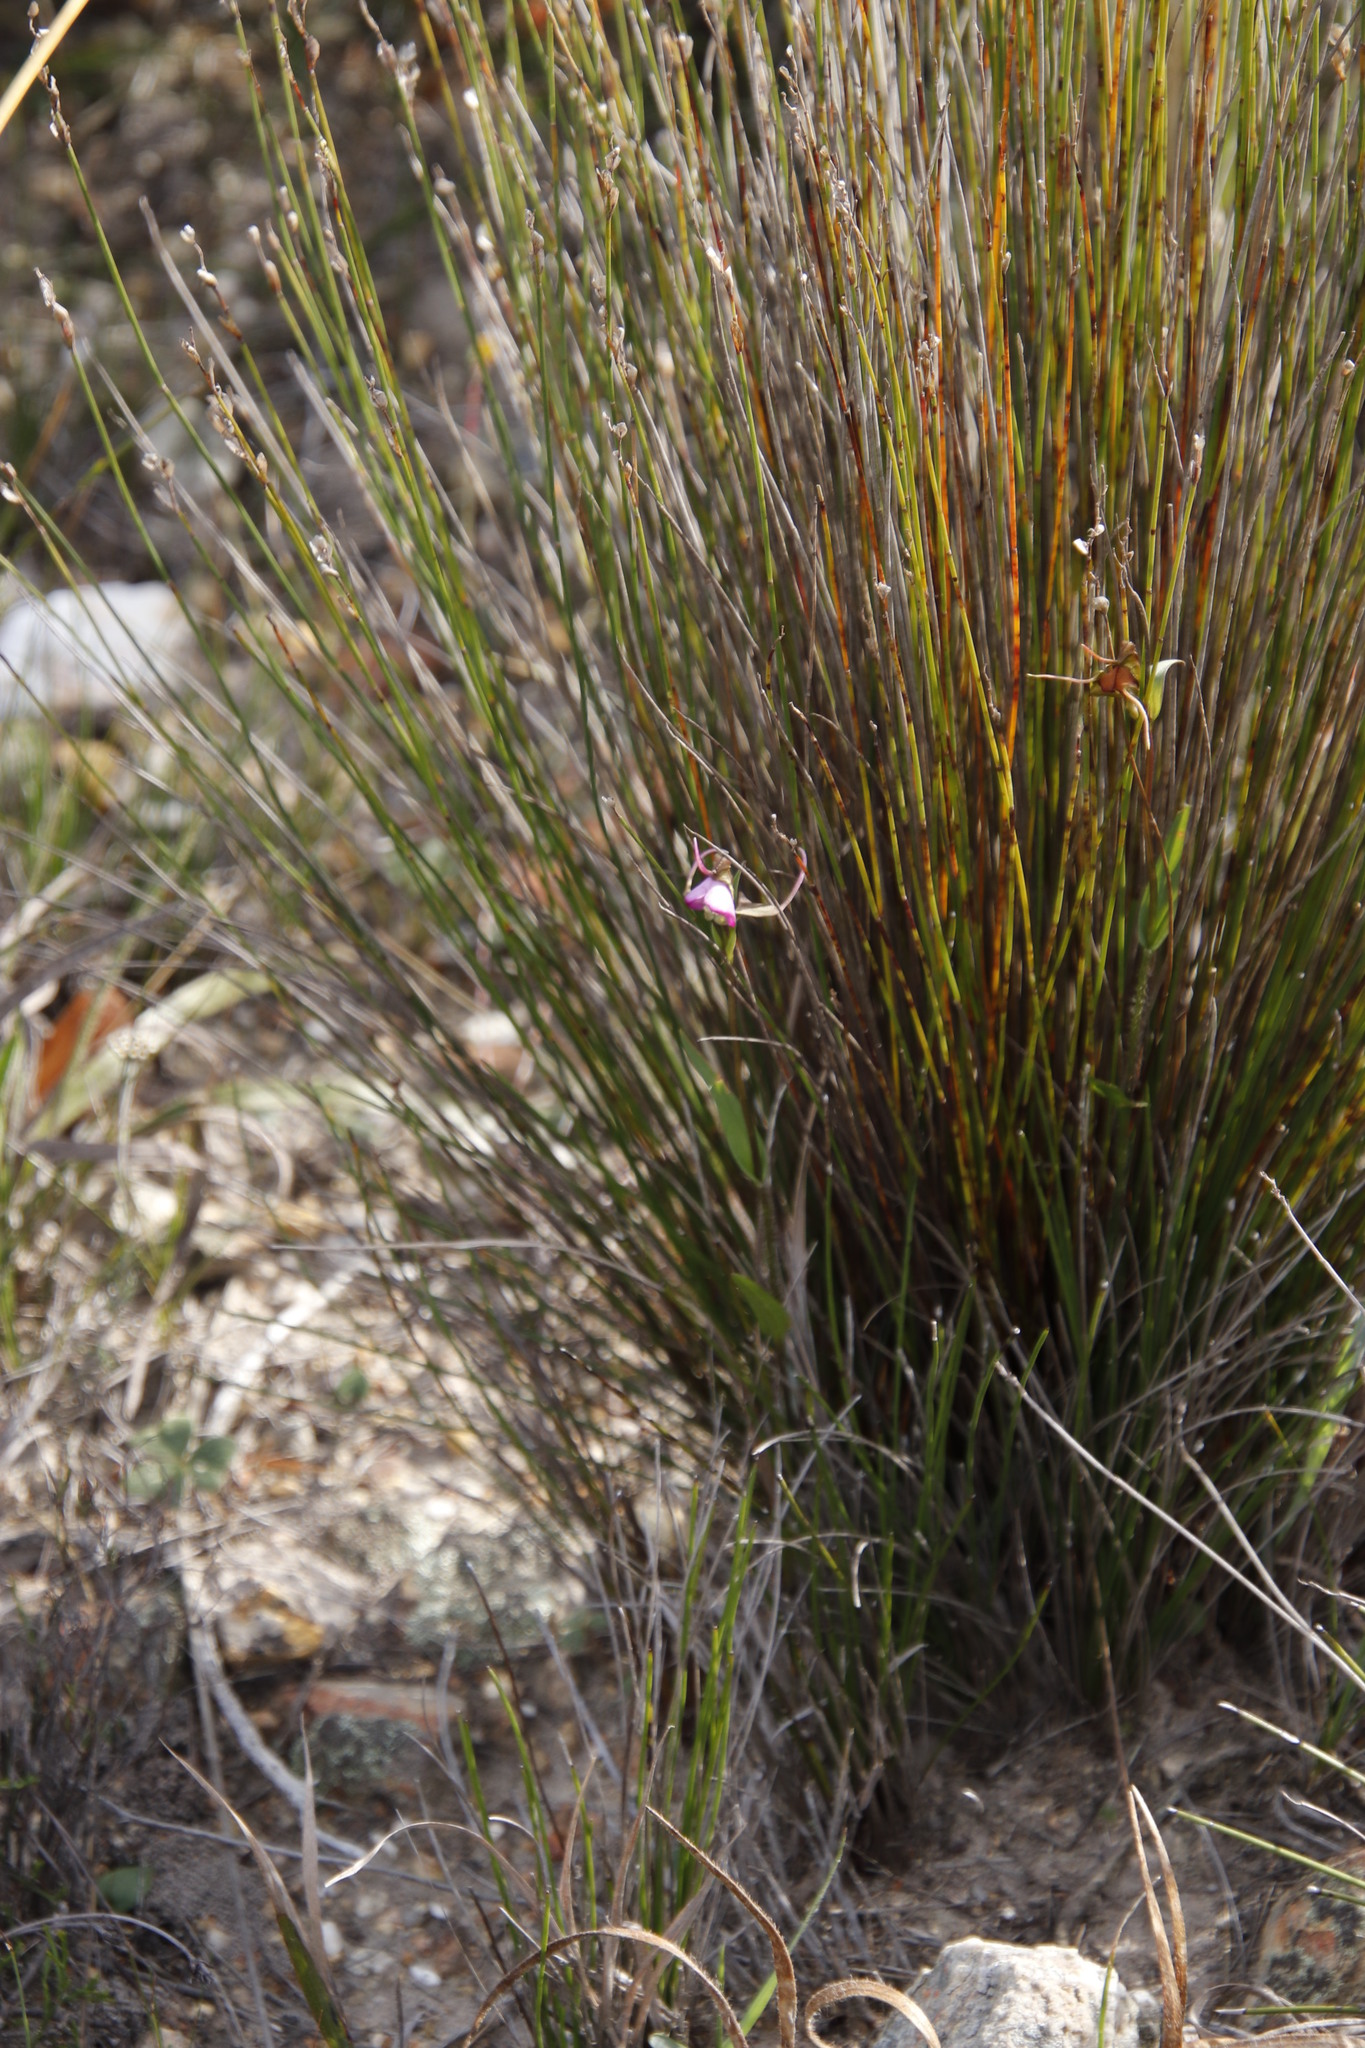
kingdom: Plantae
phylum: Tracheophyta
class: Liliopsida
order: Asparagales
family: Orchidaceae
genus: Disperis
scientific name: Disperis capensis
